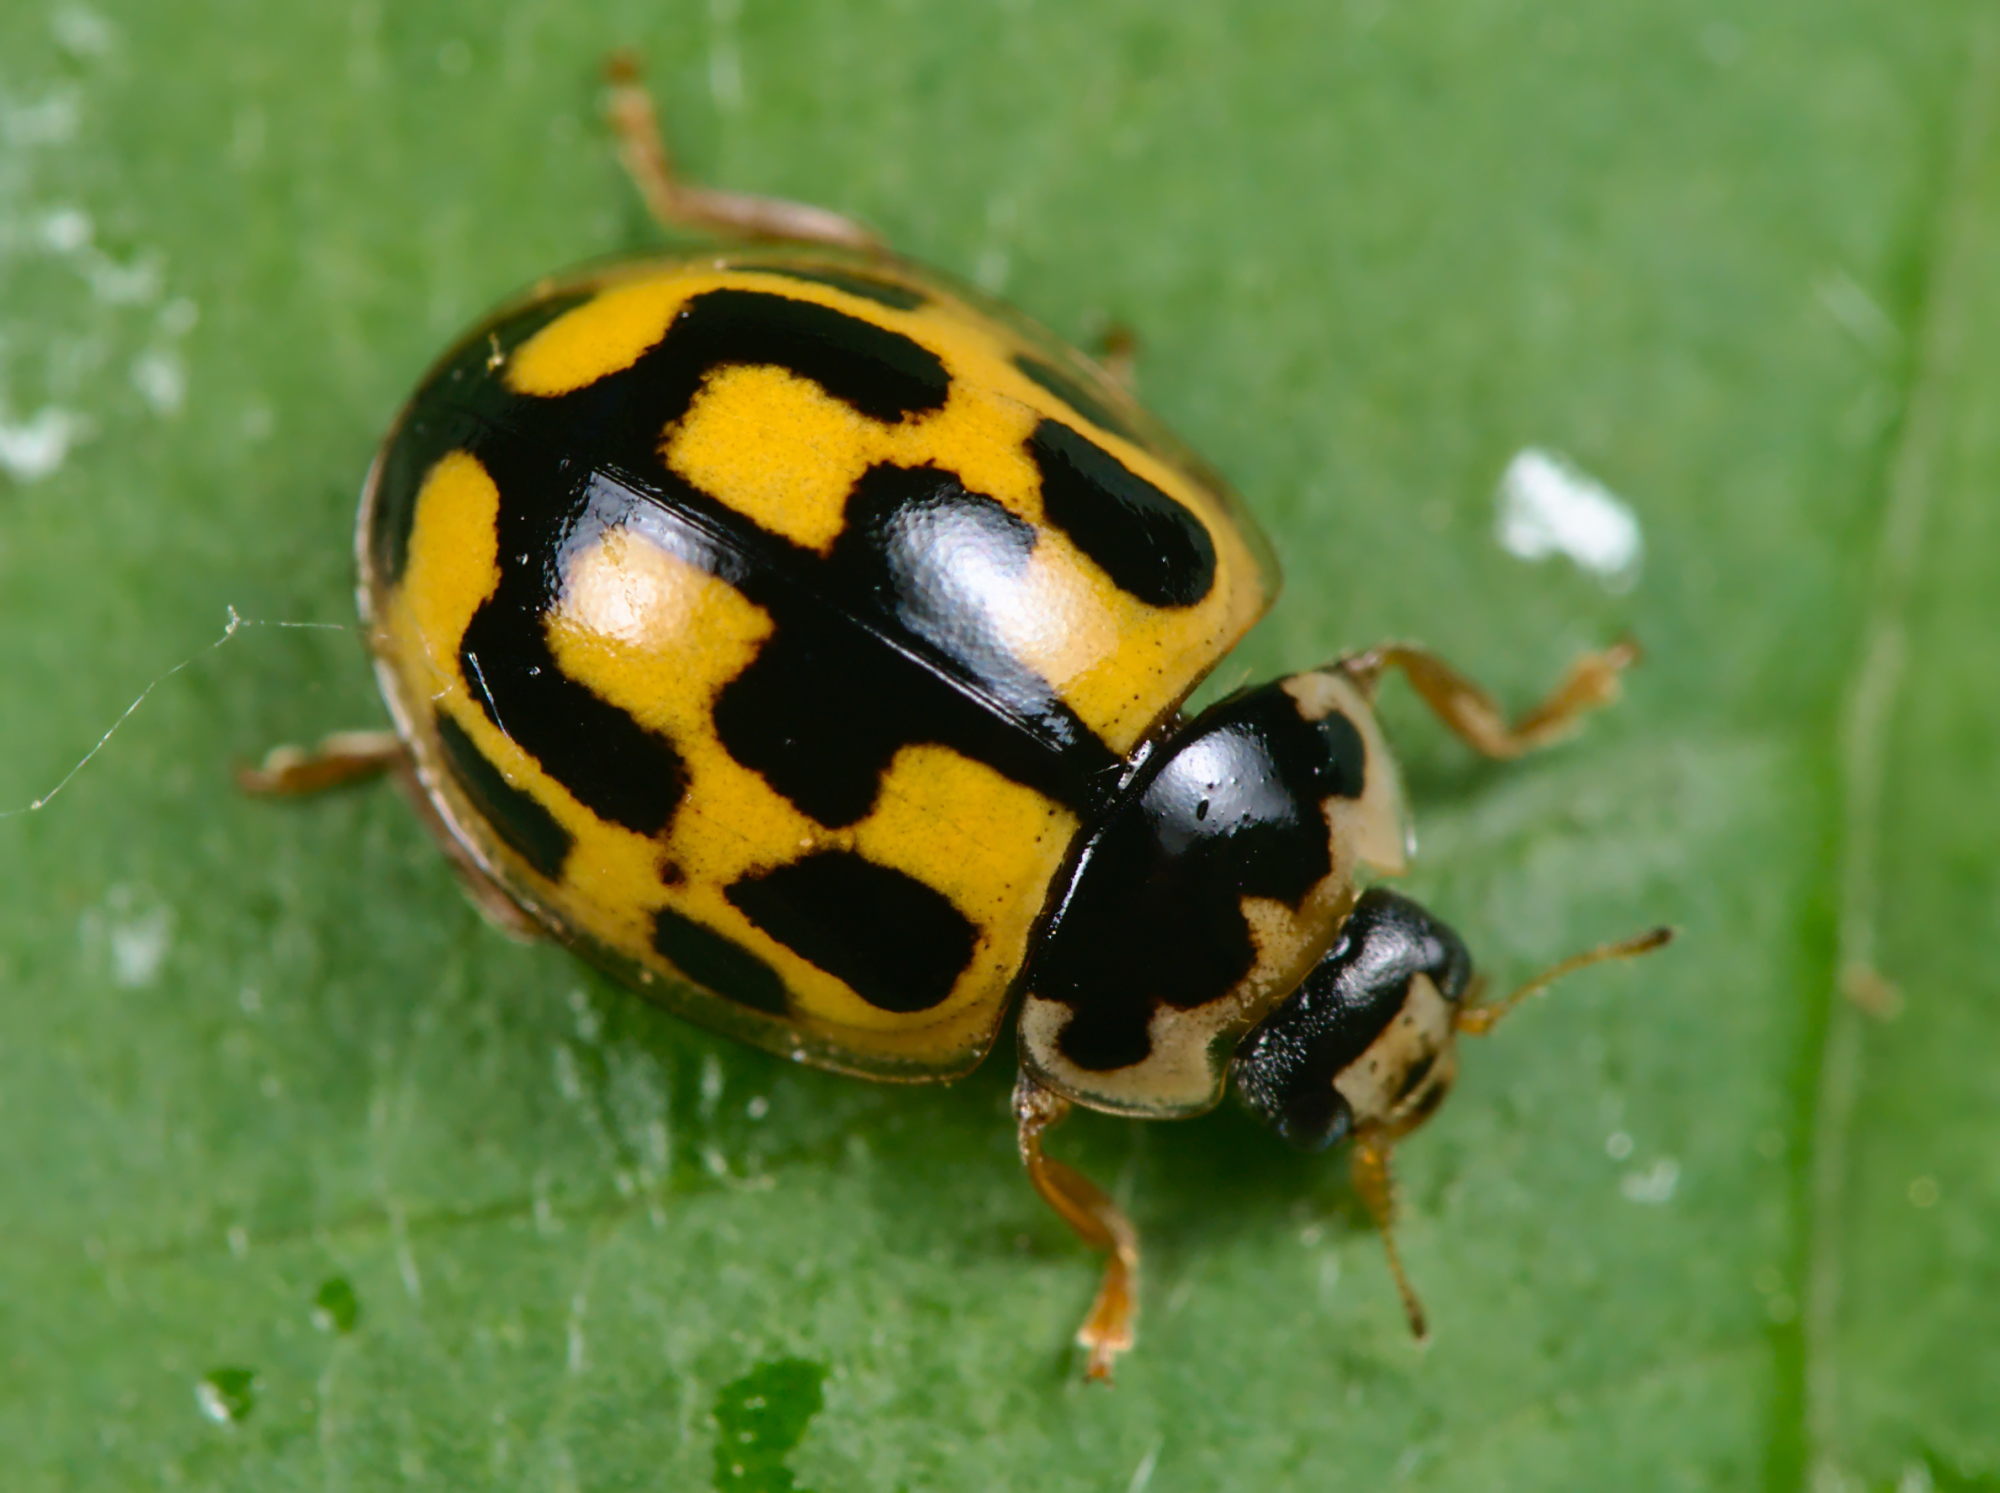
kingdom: Animalia
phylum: Arthropoda
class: Insecta
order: Coleoptera
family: Coccinellidae
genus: Propylaea
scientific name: Propylaea quatuordecimpunctata
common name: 14-spotted ladybird beetle
